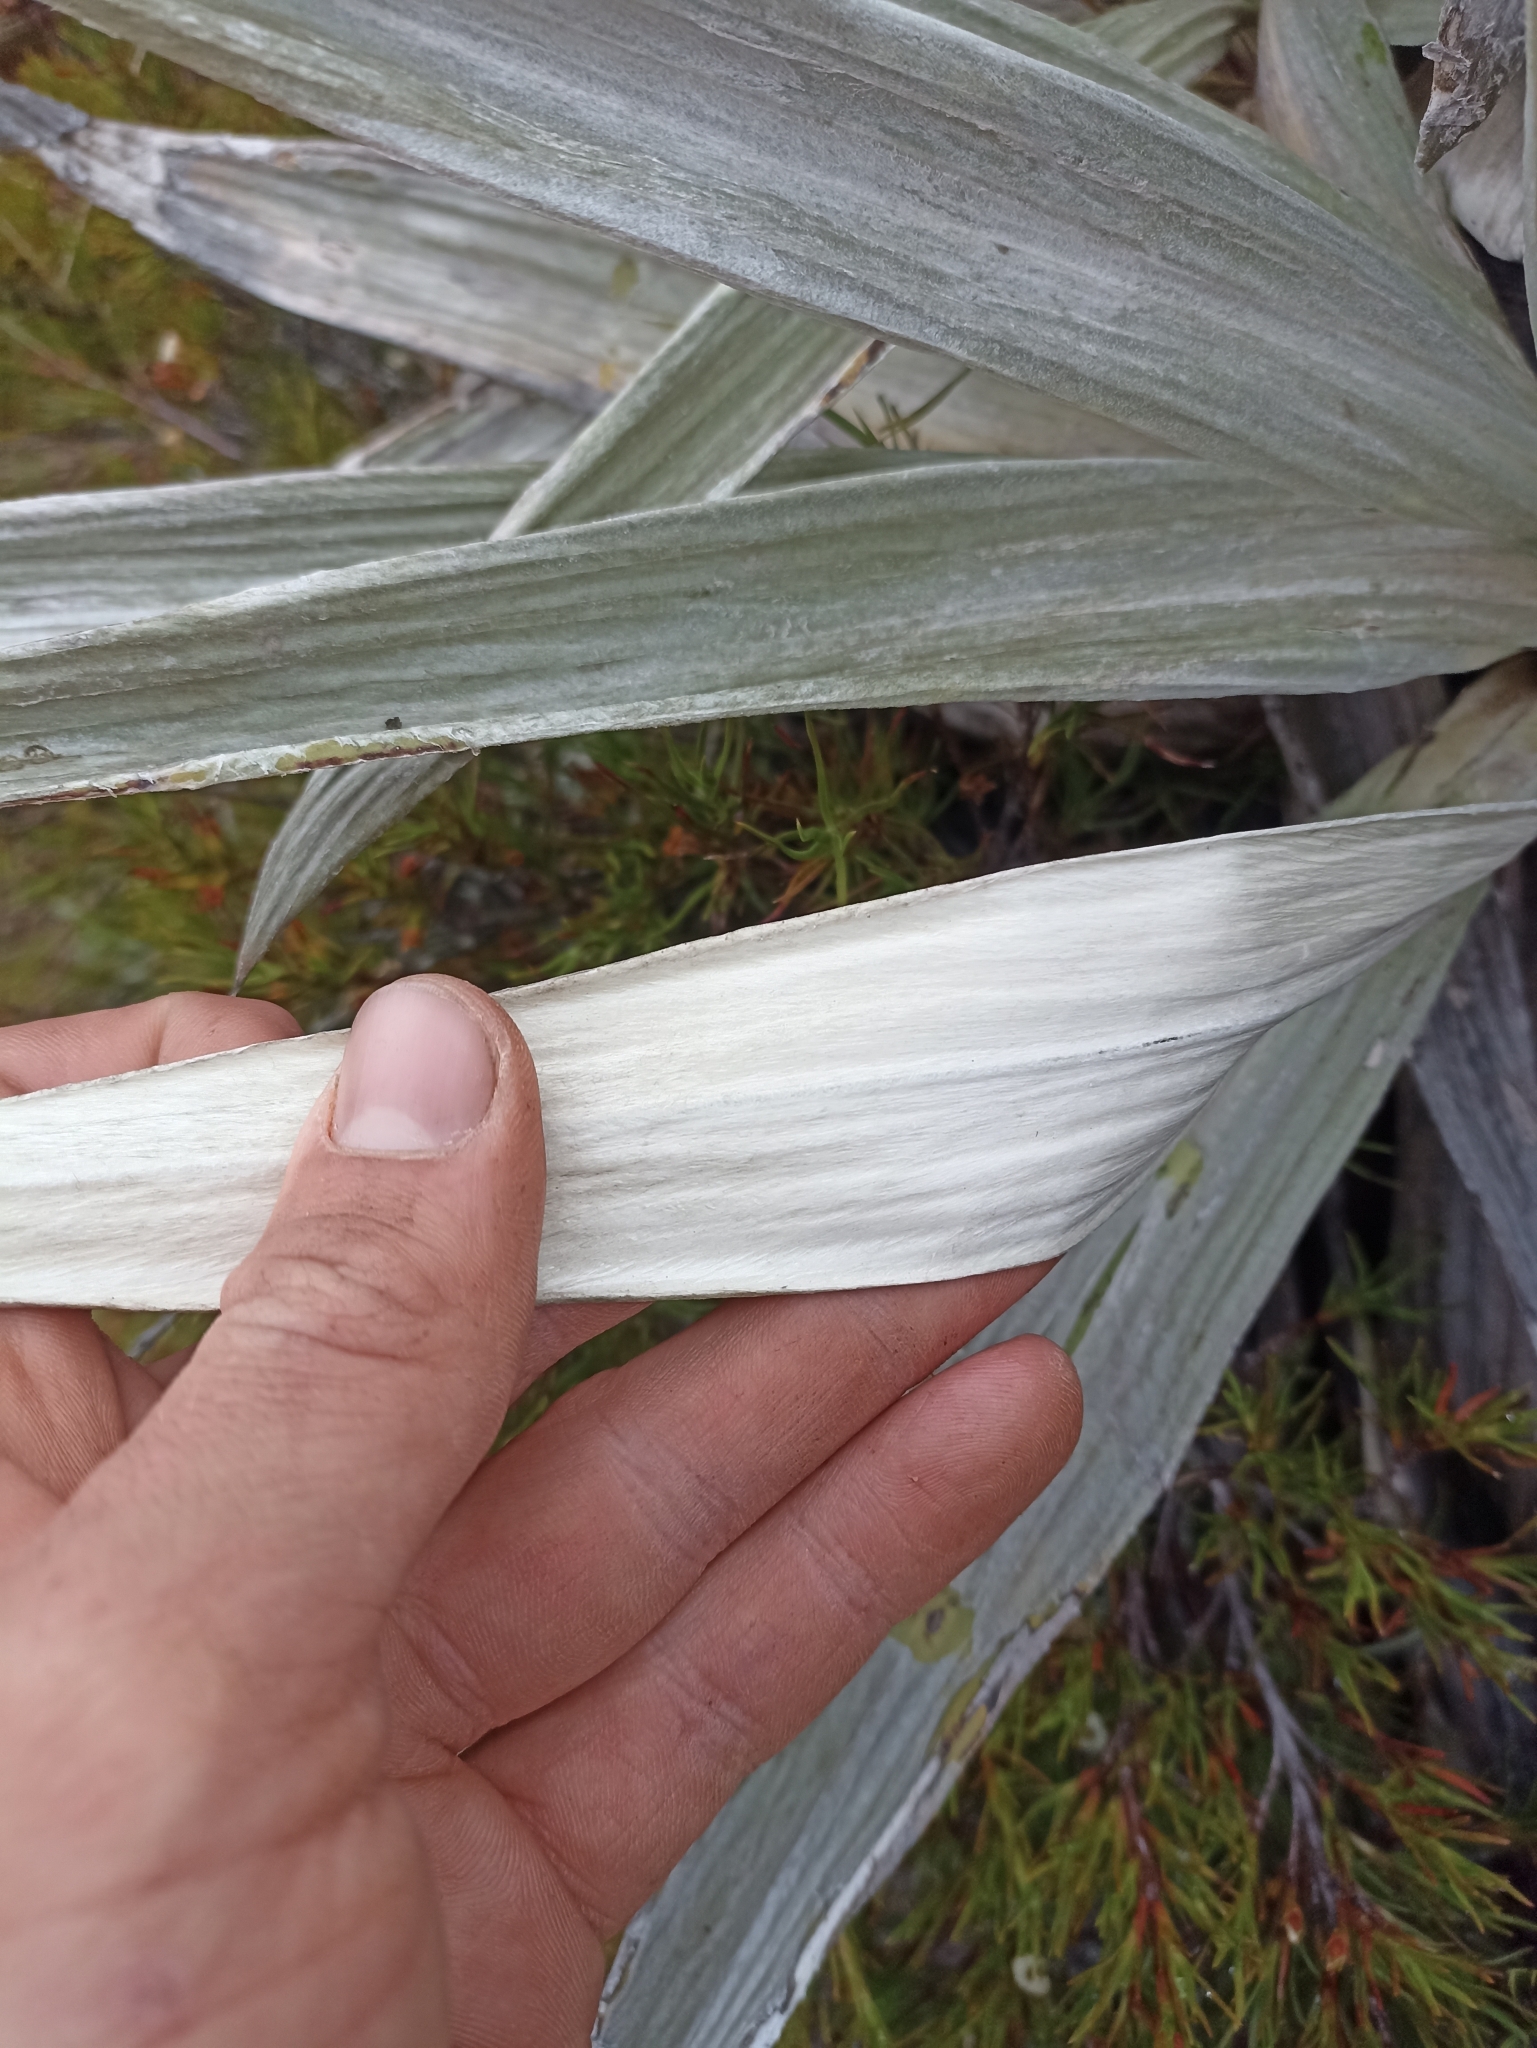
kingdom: Plantae
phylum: Tracheophyta
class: Magnoliopsida
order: Asterales
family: Asteraceae
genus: Celmisia
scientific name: Celmisia semicordata
